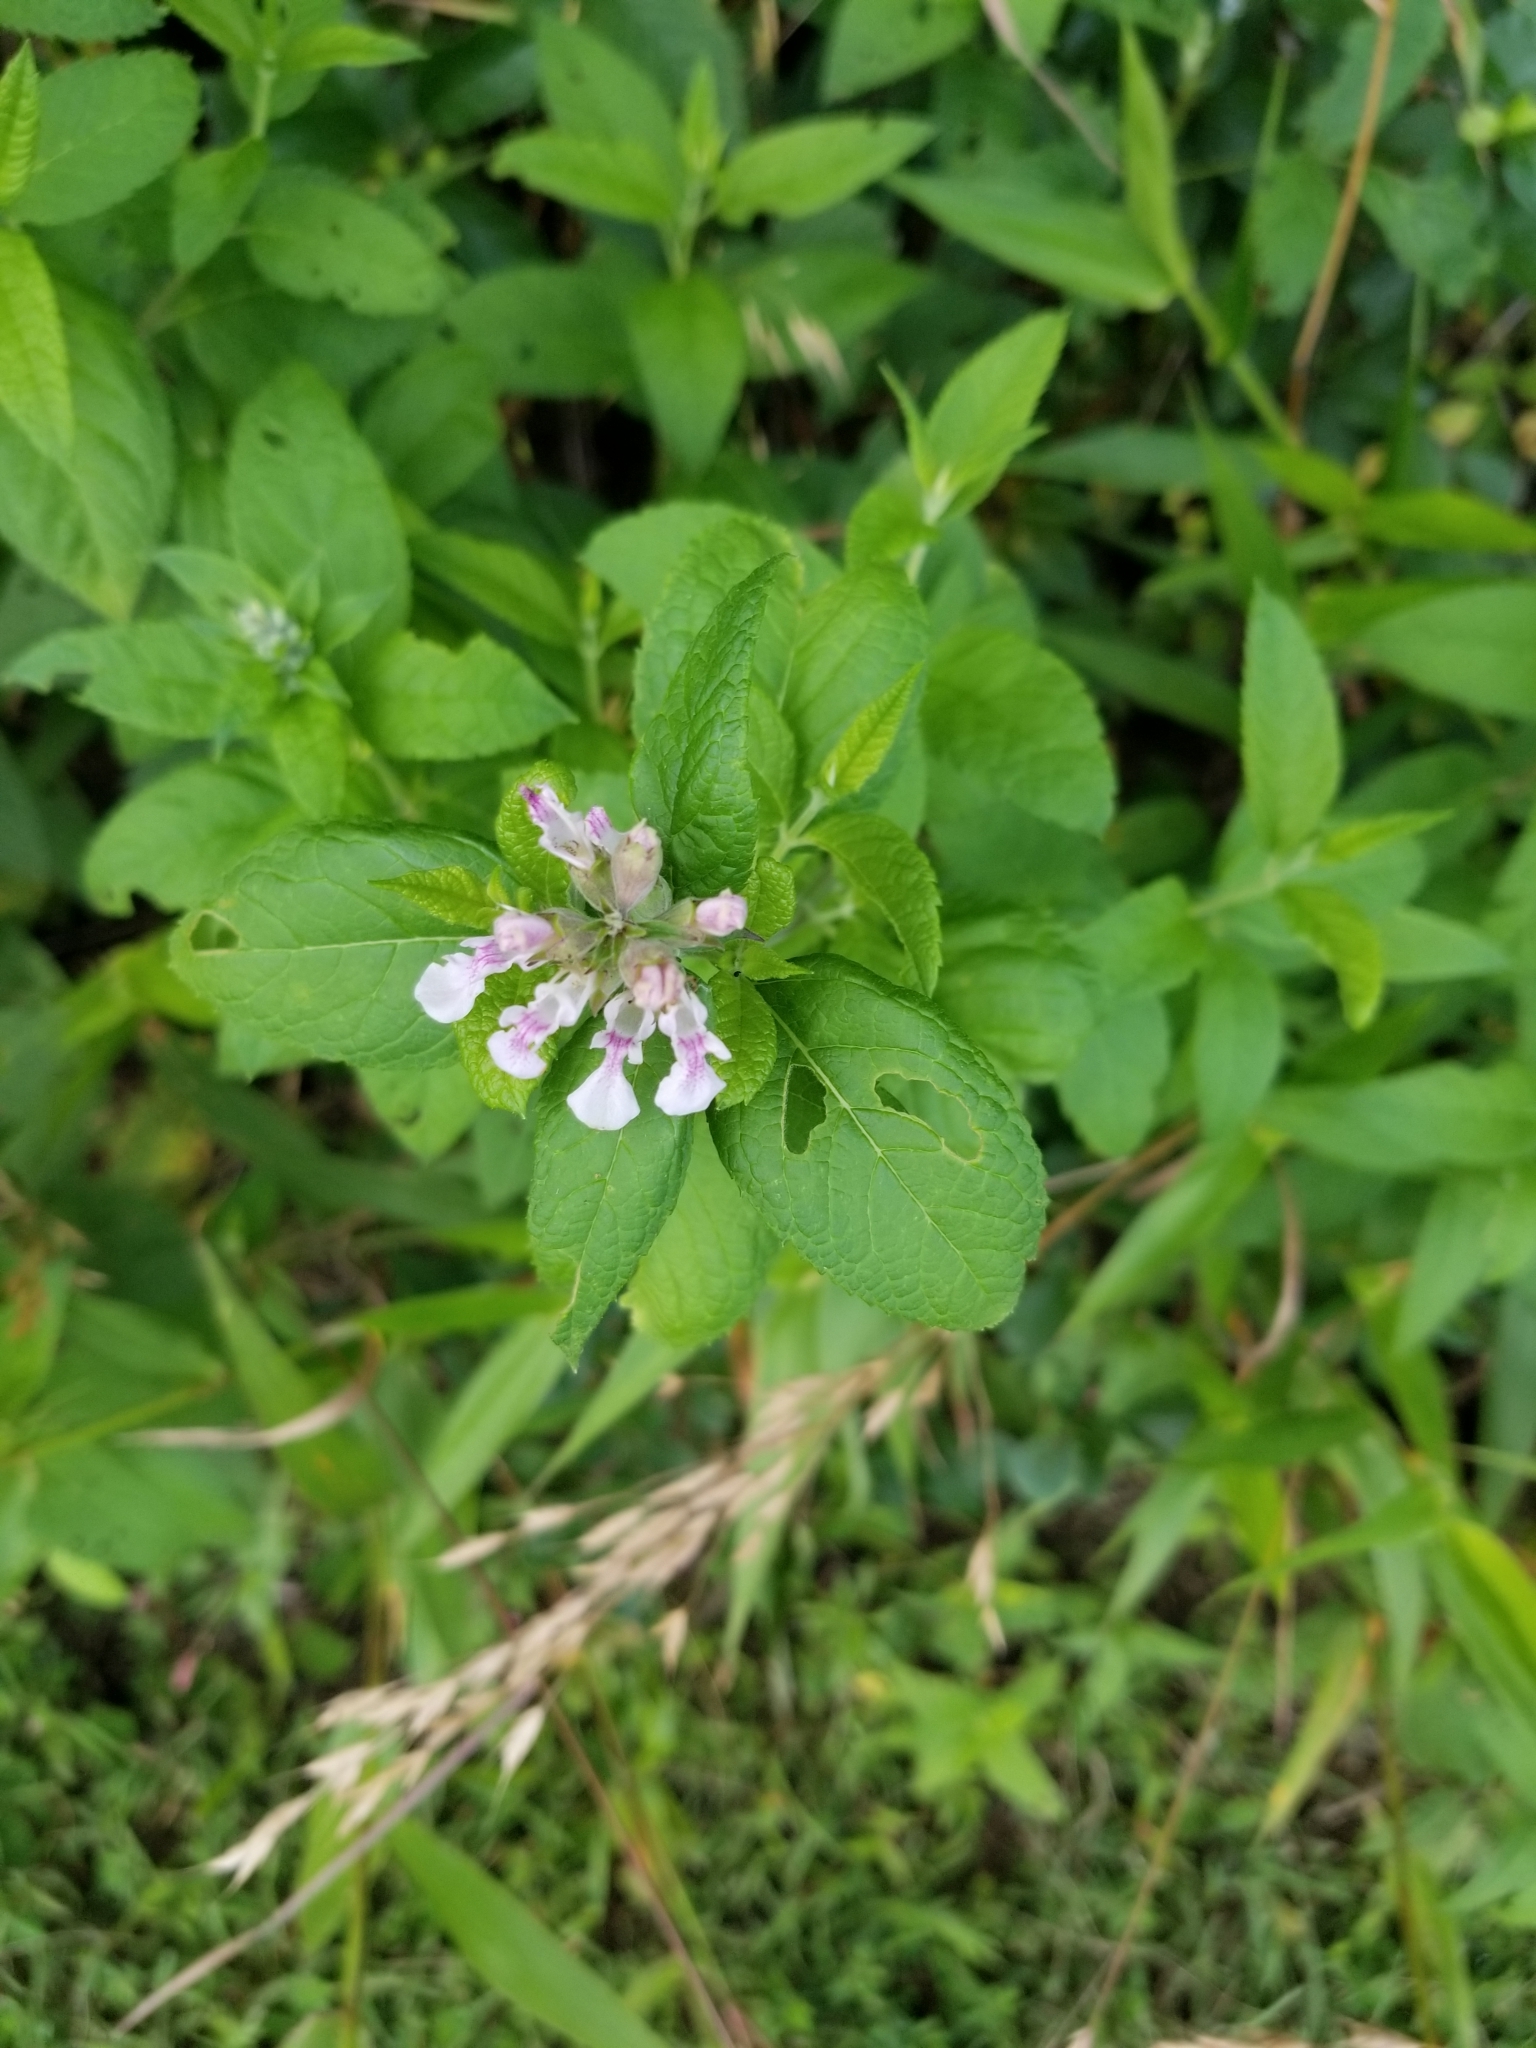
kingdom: Plantae
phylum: Tracheophyta
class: Magnoliopsida
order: Lamiales
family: Lamiaceae
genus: Teucrium
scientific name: Teucrium canadense
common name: American germander
